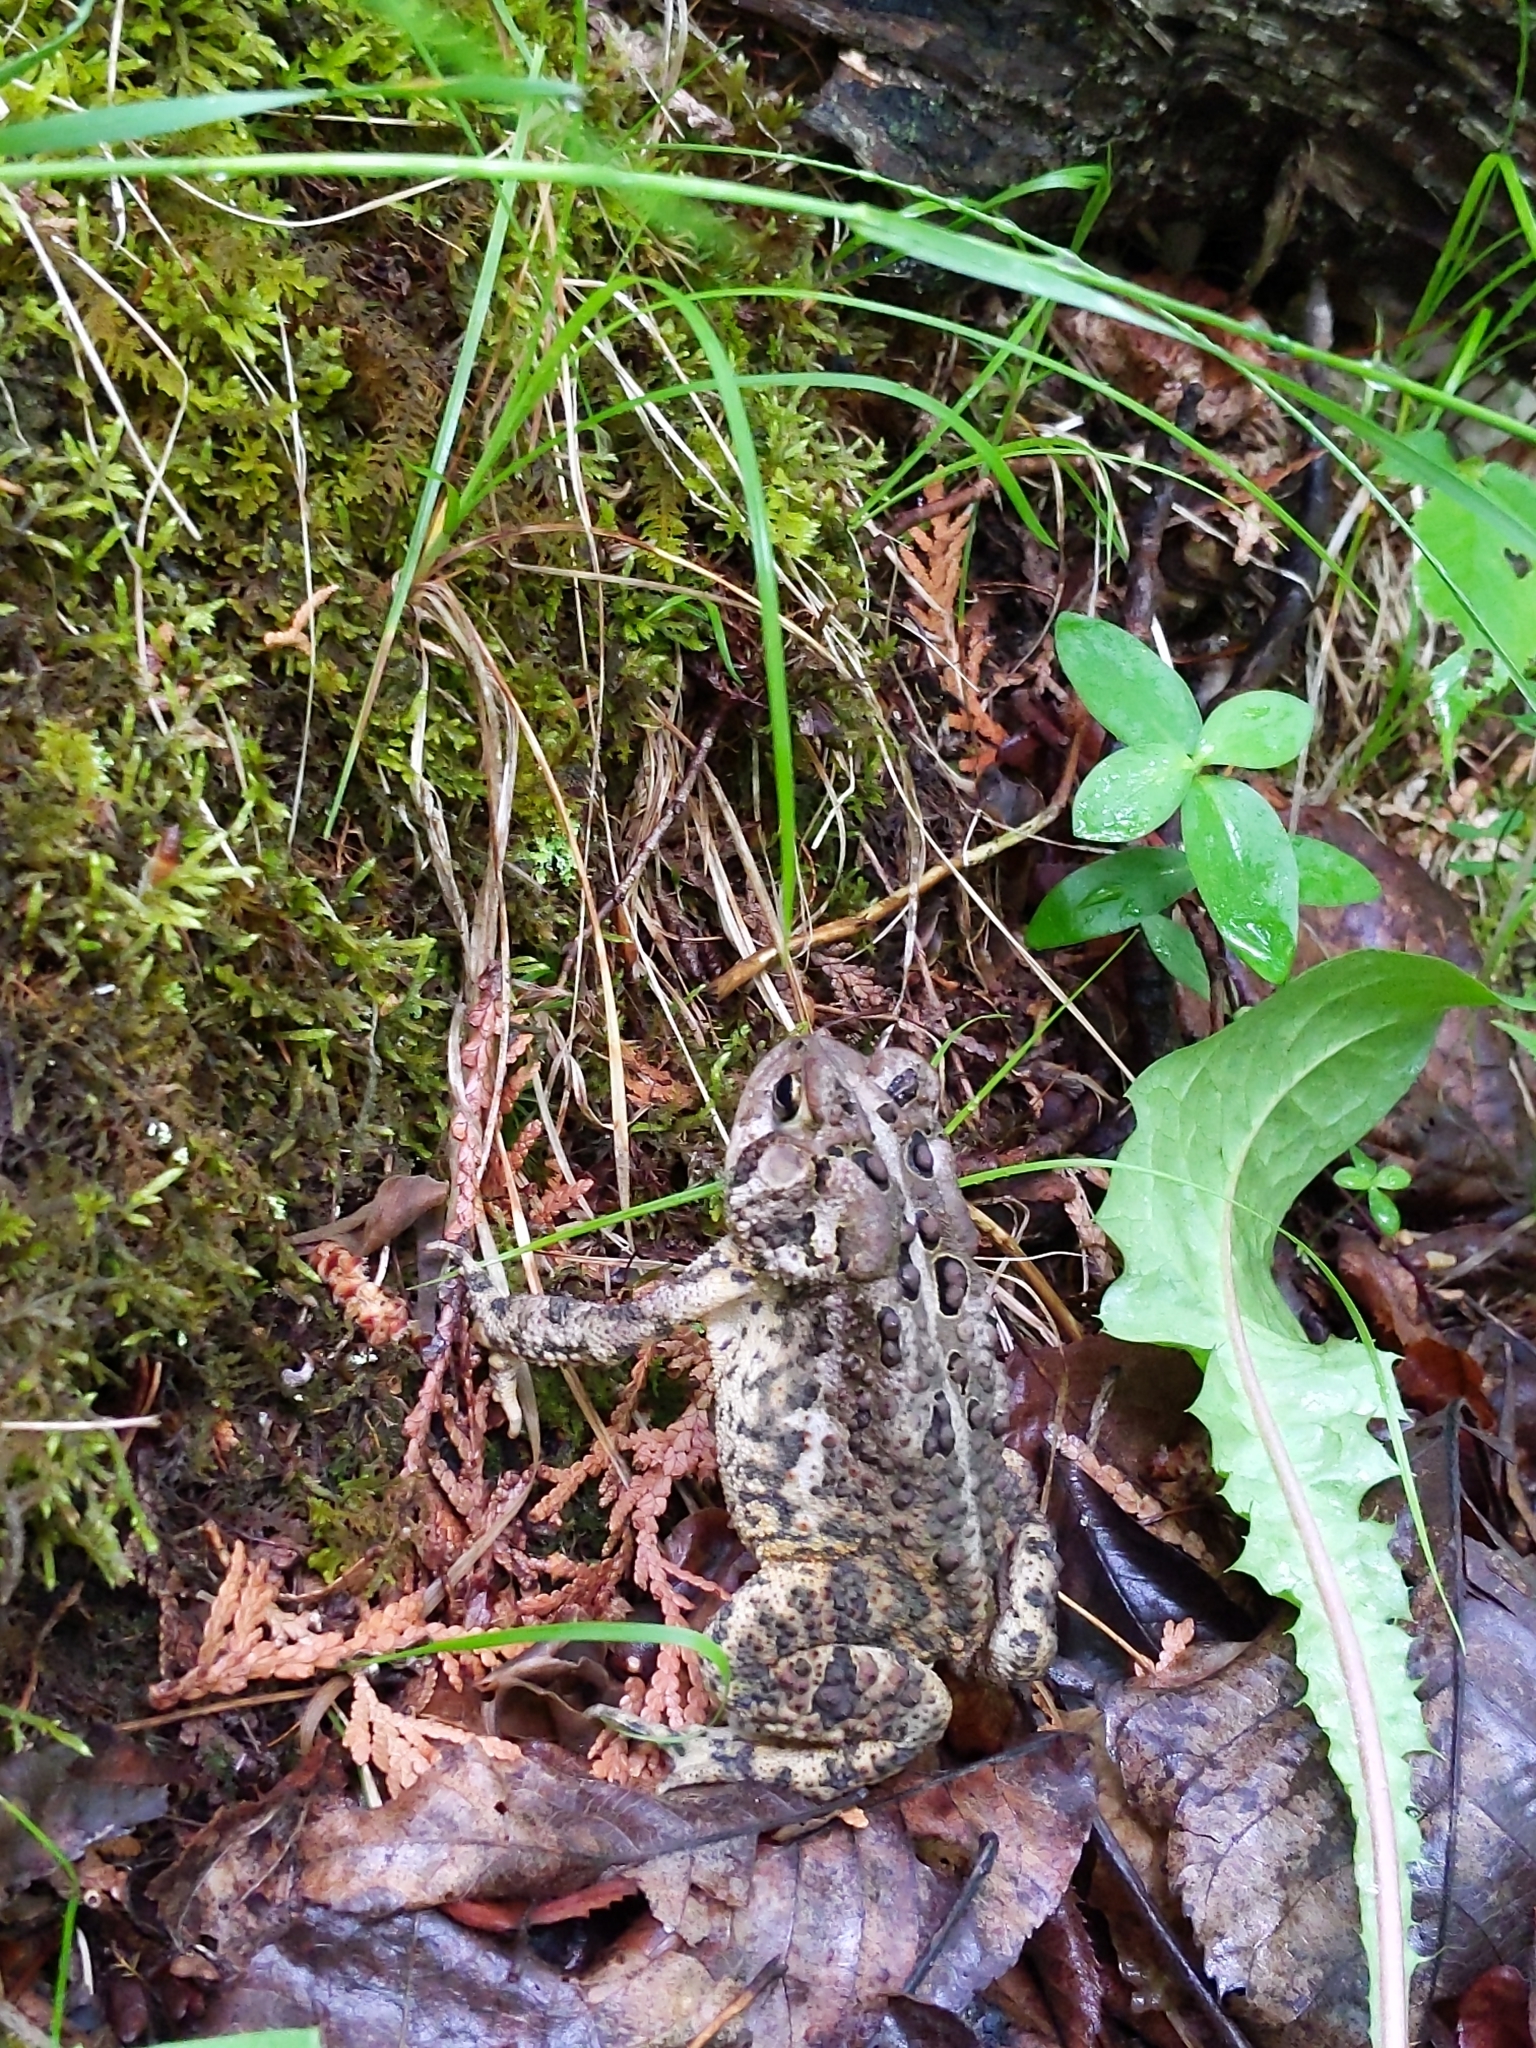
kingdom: Animalia
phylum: Chordata
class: Amphibia
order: Anura
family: Bufonidae
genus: Anaxyrus
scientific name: Anaxyrus americanus
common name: American toad
